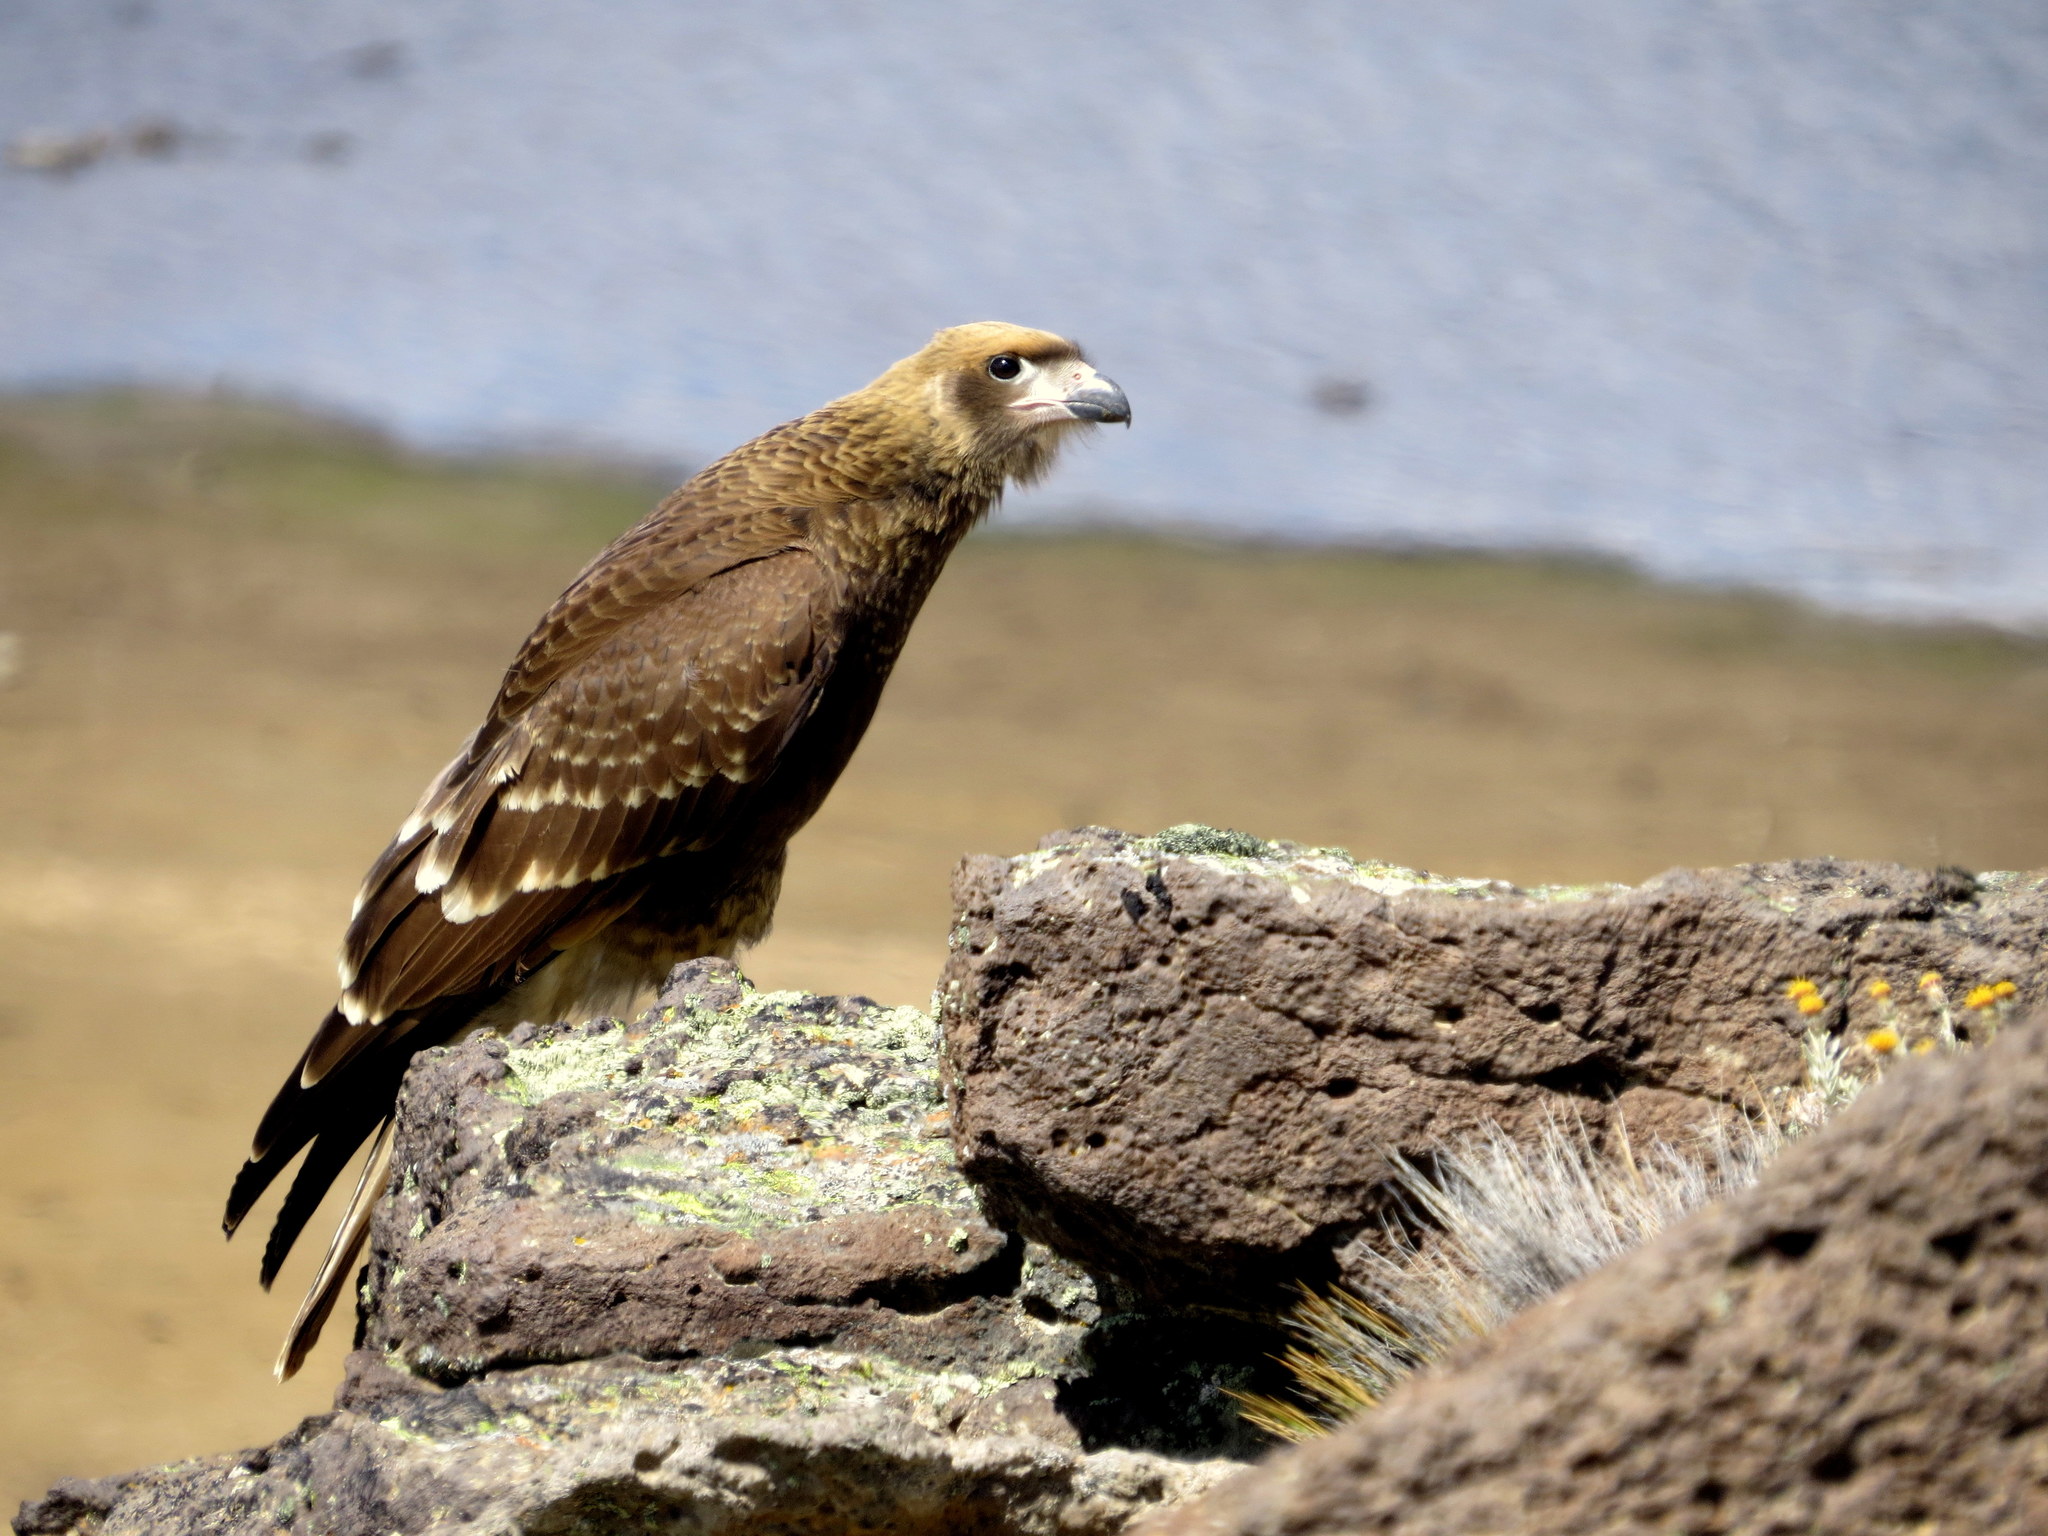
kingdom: Animalia
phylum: Chordata
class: Aves
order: Falconiformes
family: Falconidae
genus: Daptrius
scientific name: Daptrius
